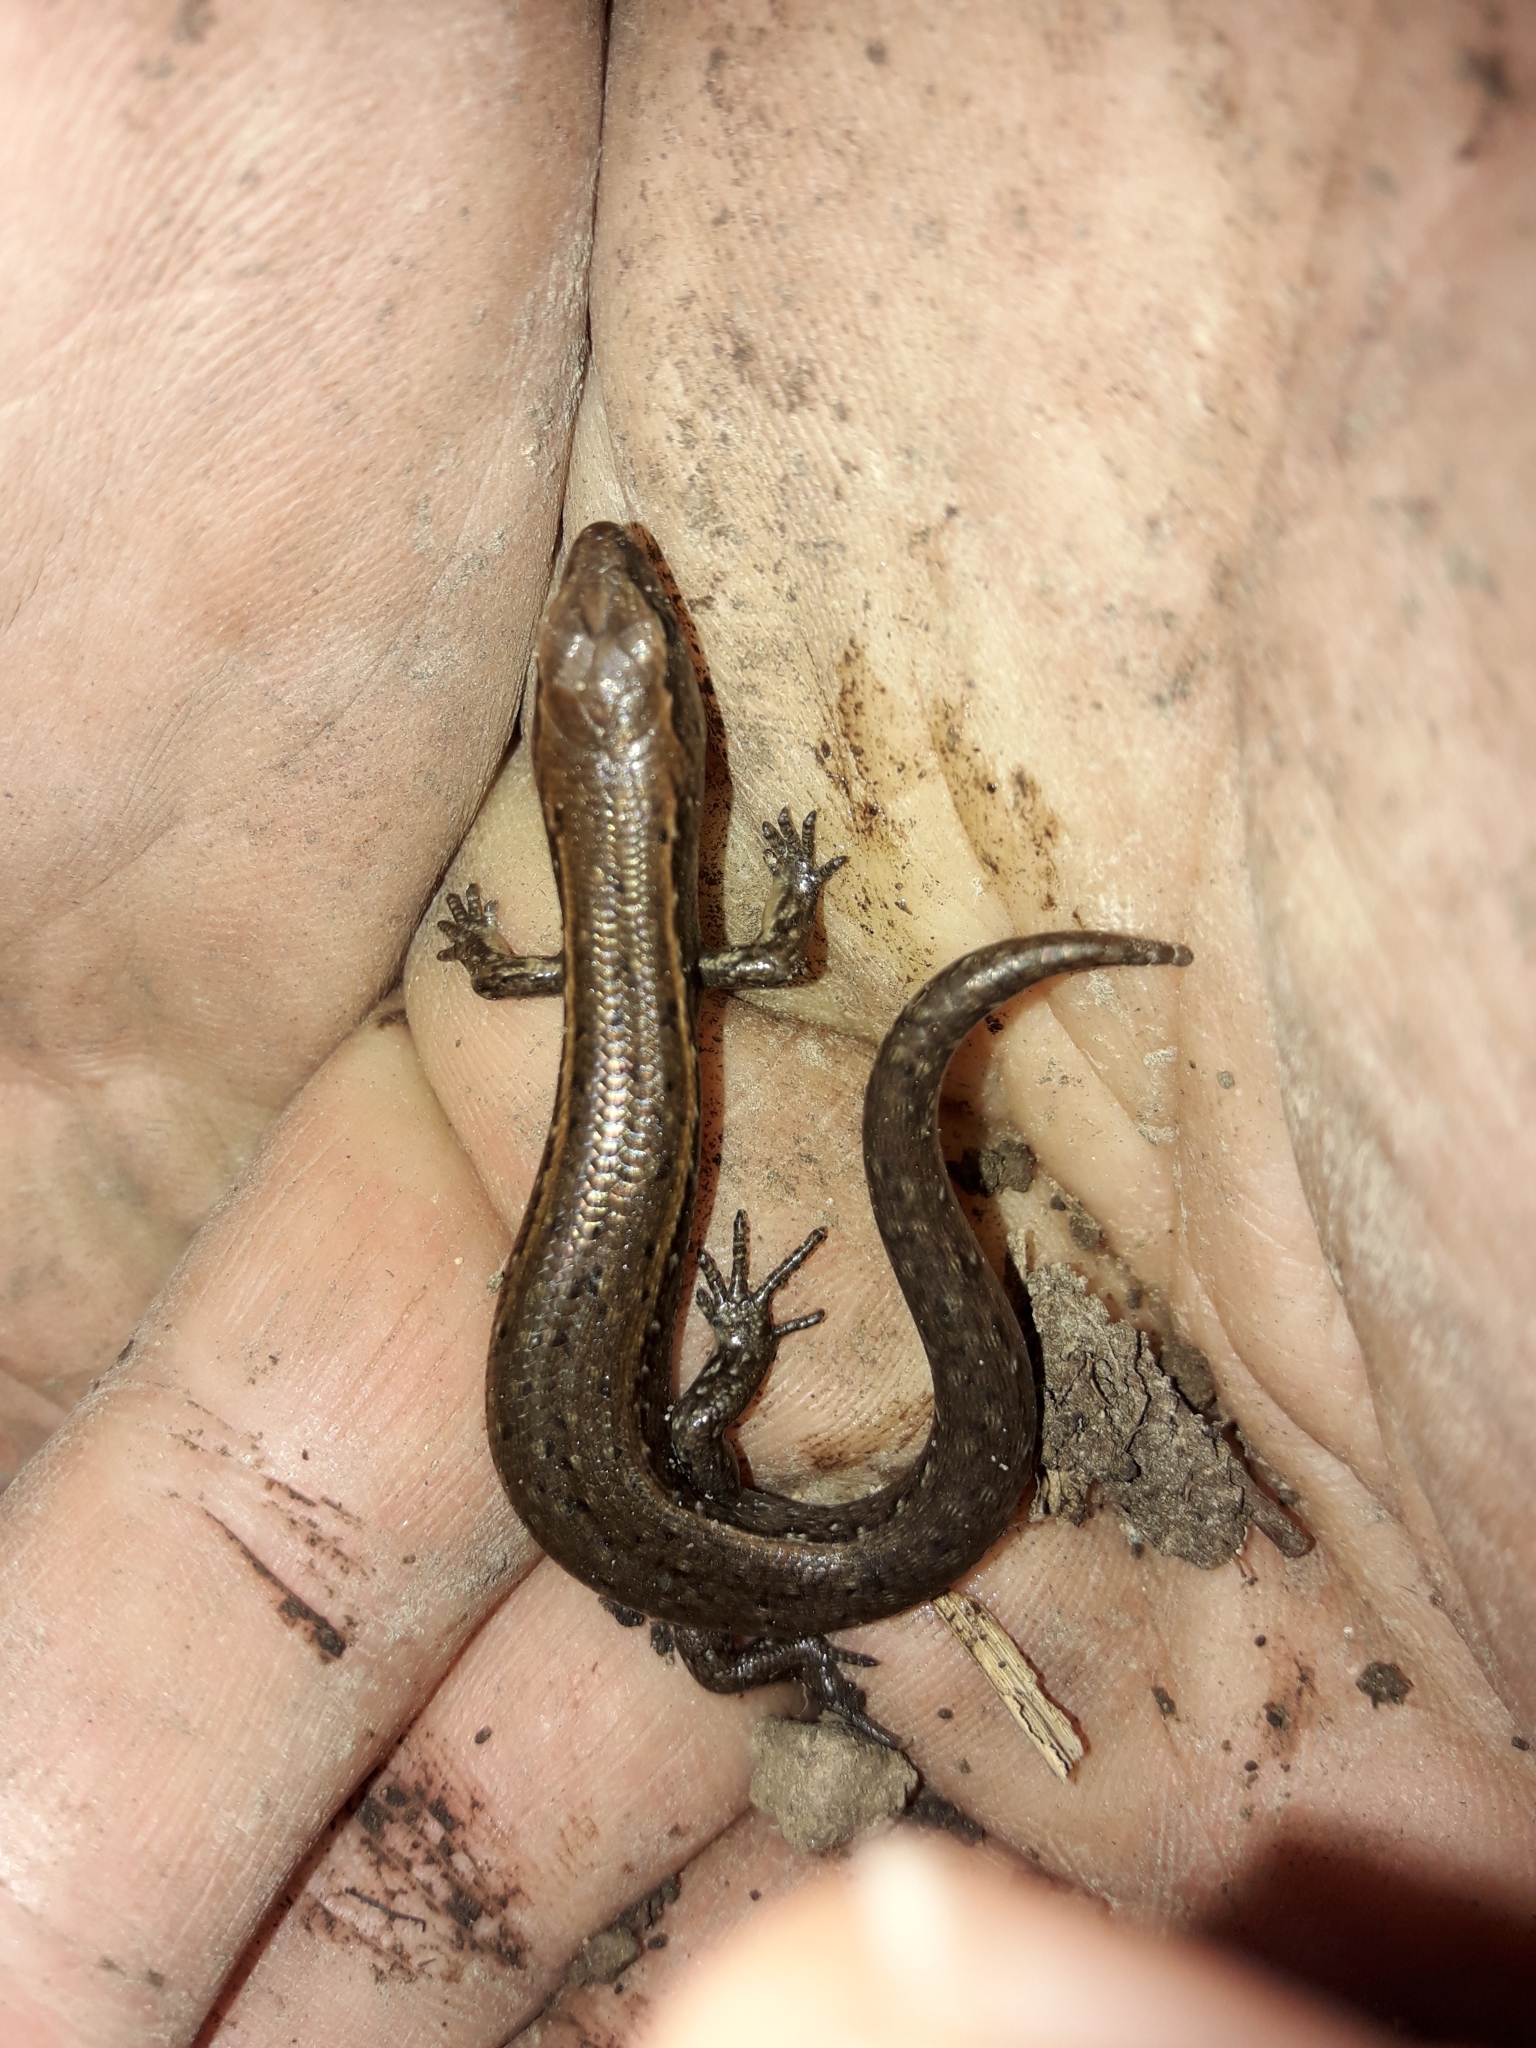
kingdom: Animalia
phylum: Chordata
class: Squamata
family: Scincidae
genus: Oligosoma
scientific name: Oligosoma aeneum
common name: Copper skink
